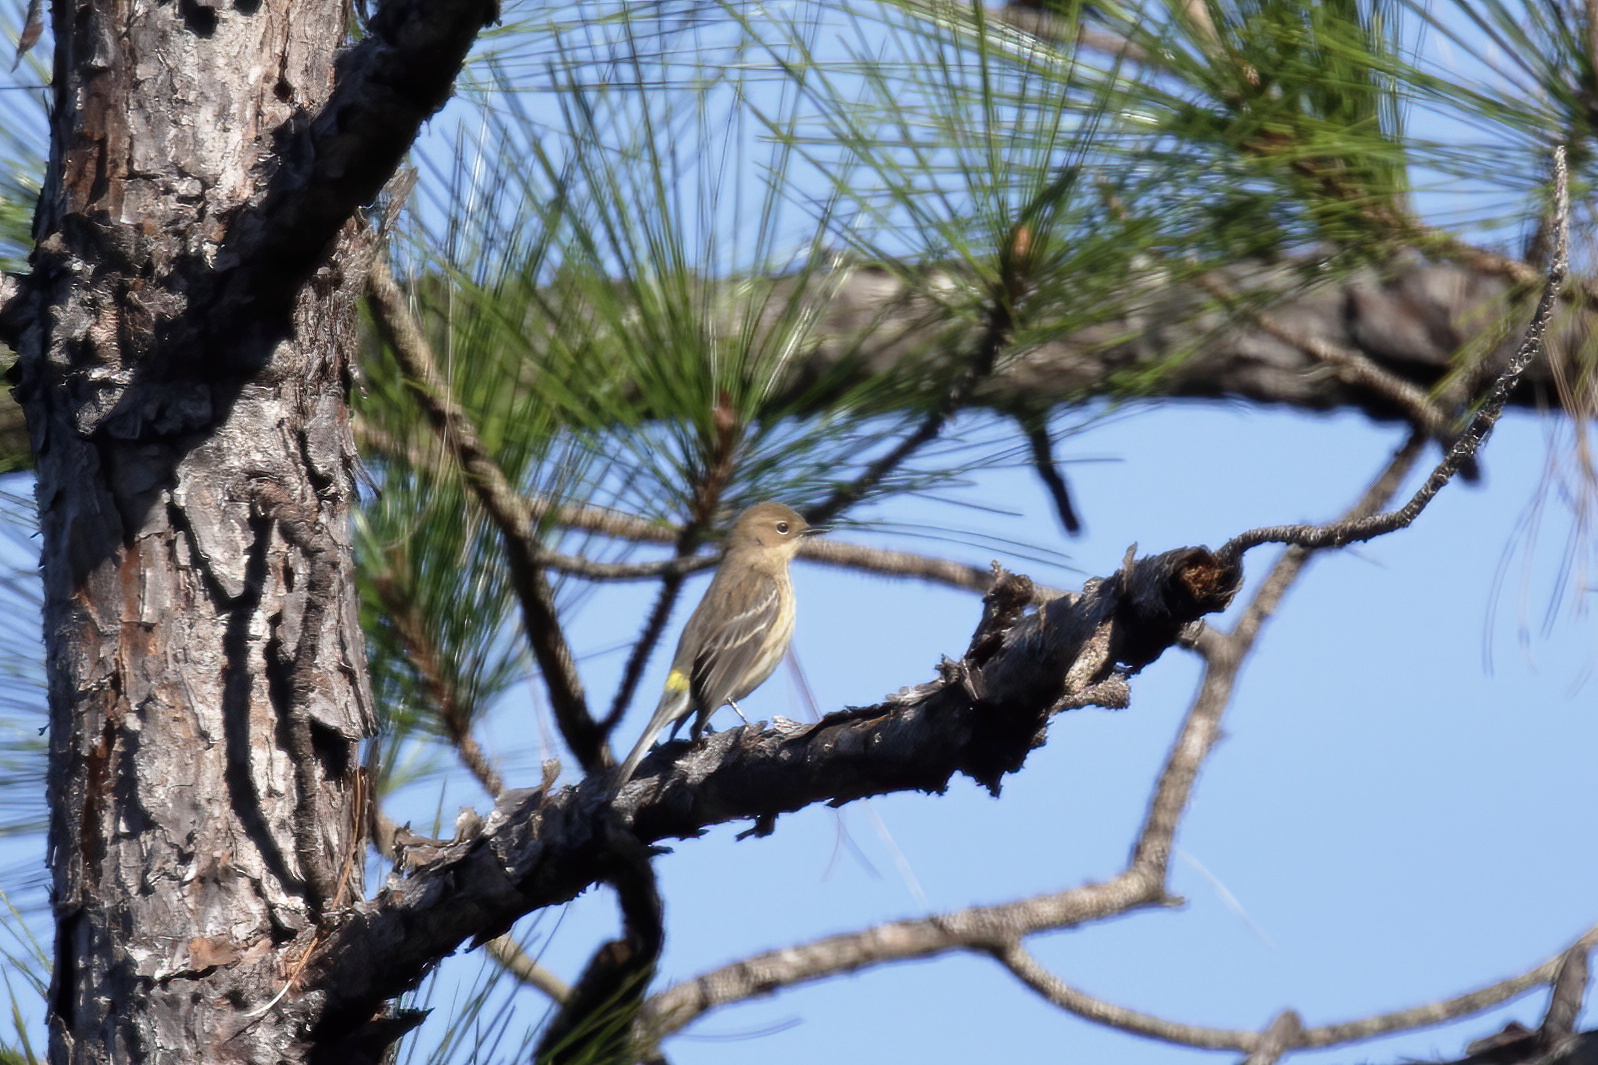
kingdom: Animalia
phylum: Chordata
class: Aves
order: Passeriformes
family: Parulidae
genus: Setophaga
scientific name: Setophaga coronata
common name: Myrtle warbler
